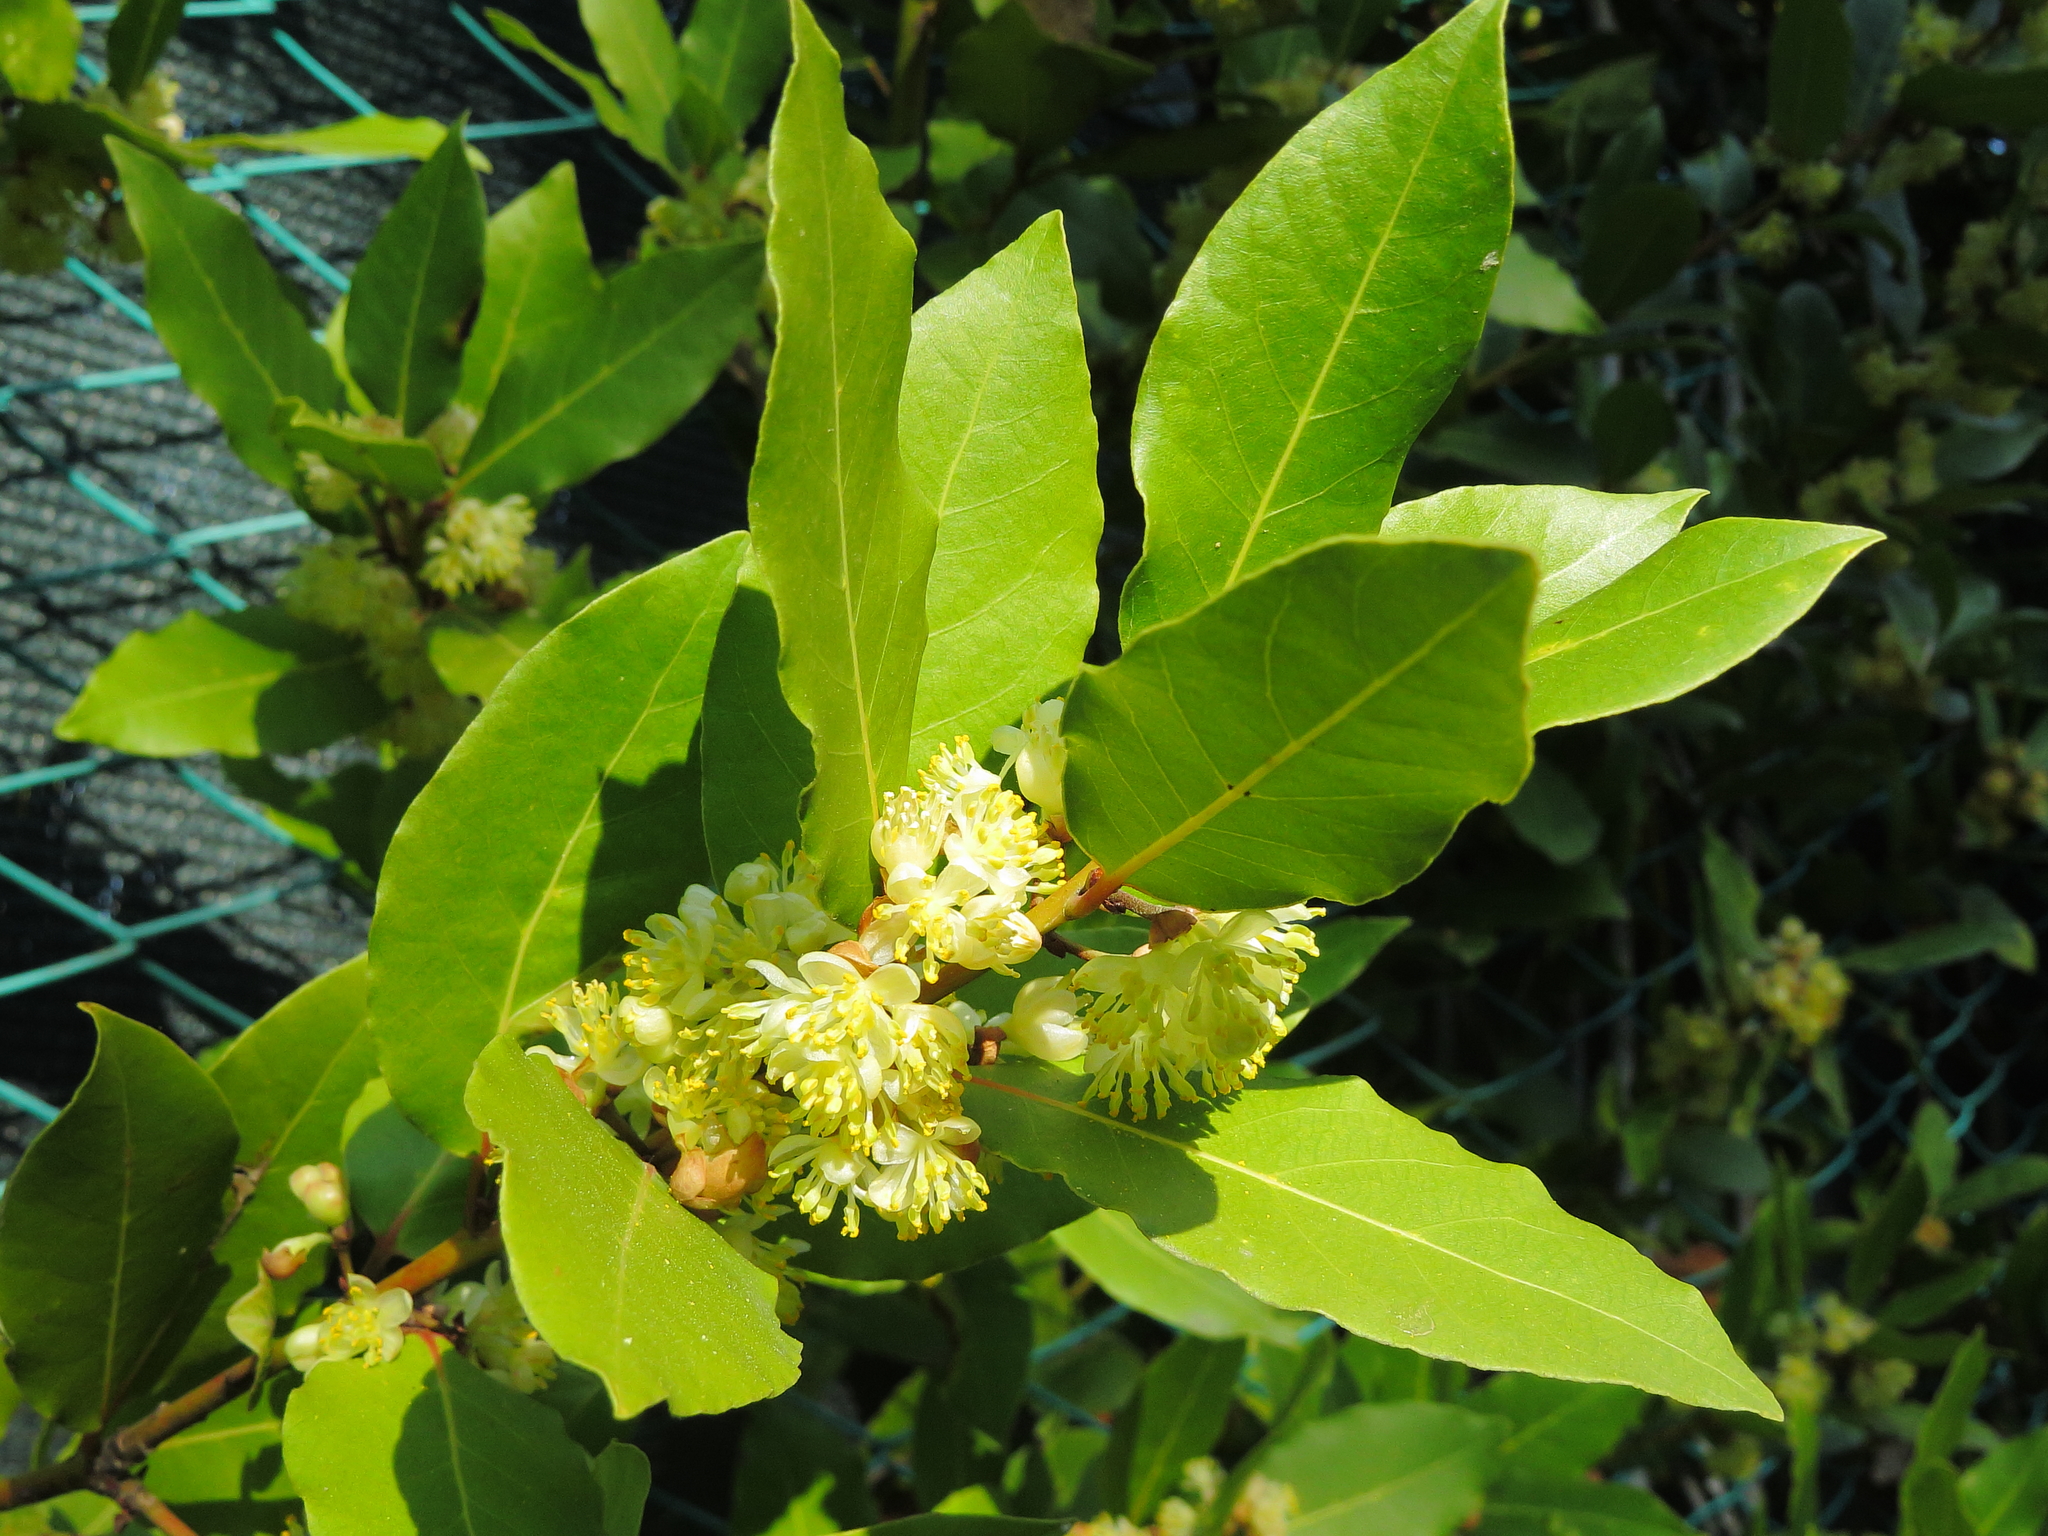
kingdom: Plantae
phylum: Tracheophyta
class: Magnoliopsida
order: Laurales
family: Lauraceae
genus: Laurus
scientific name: Laurus nobilis
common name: Bay
